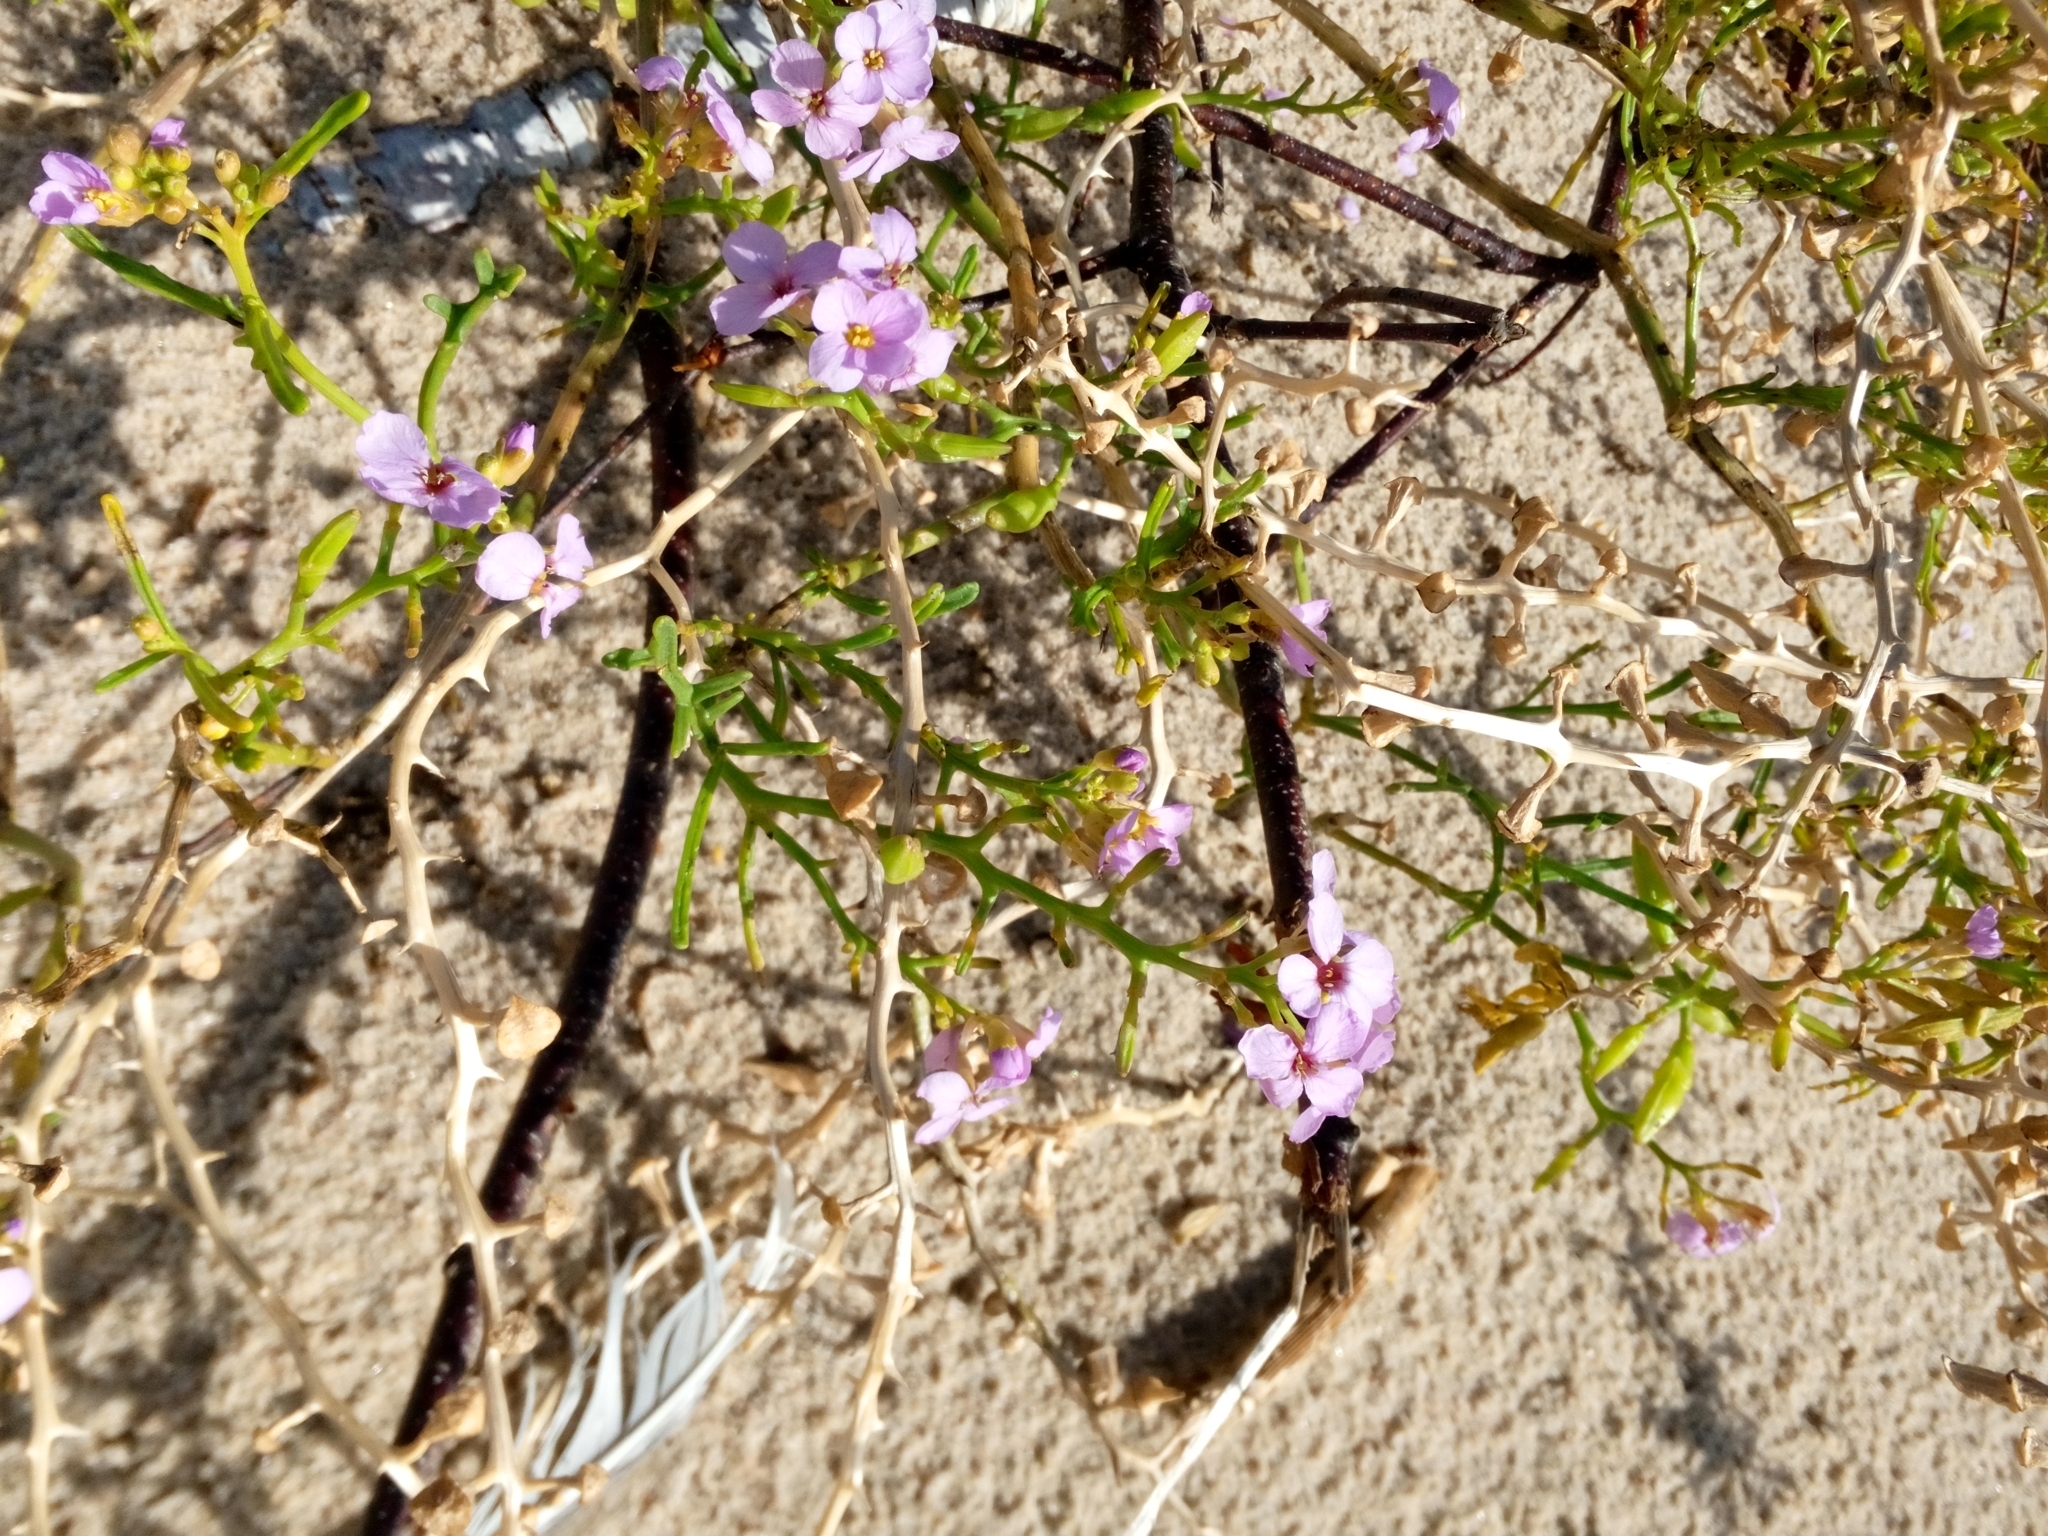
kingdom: Plantae
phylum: Tracheophyta
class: Magnoliopsida
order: Brassicales
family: Brassicaceae
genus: Cakile
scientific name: Cakile maritima
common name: Sea rocket
